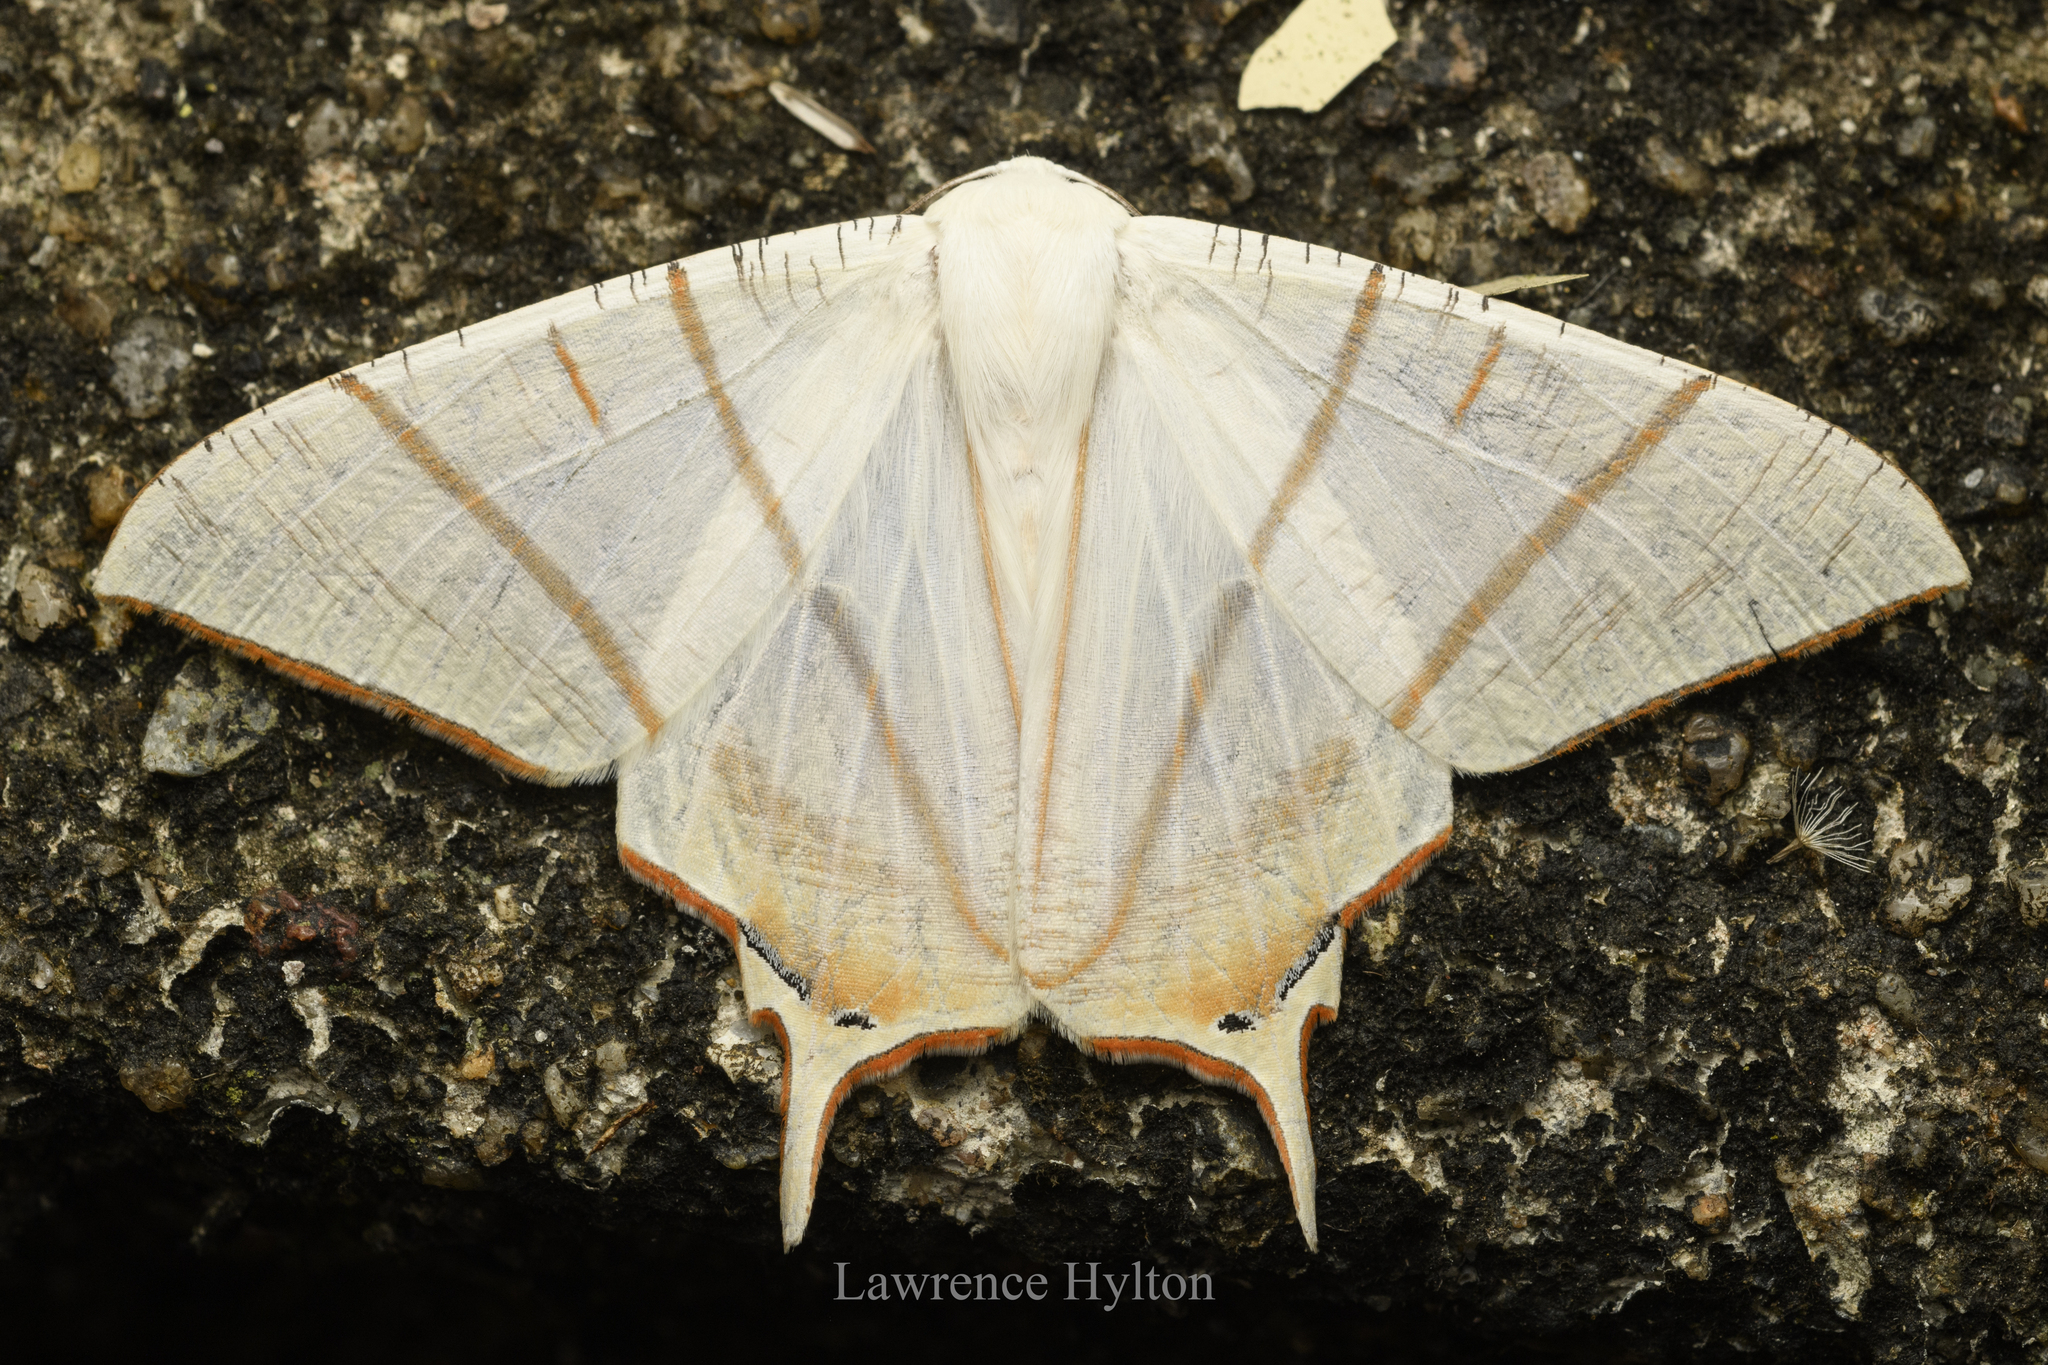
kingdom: Animalia
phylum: Arthropoda
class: Insecta
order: Lepidoptera
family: Geometridae
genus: Ourapteryx
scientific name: Ourapteryx clara
